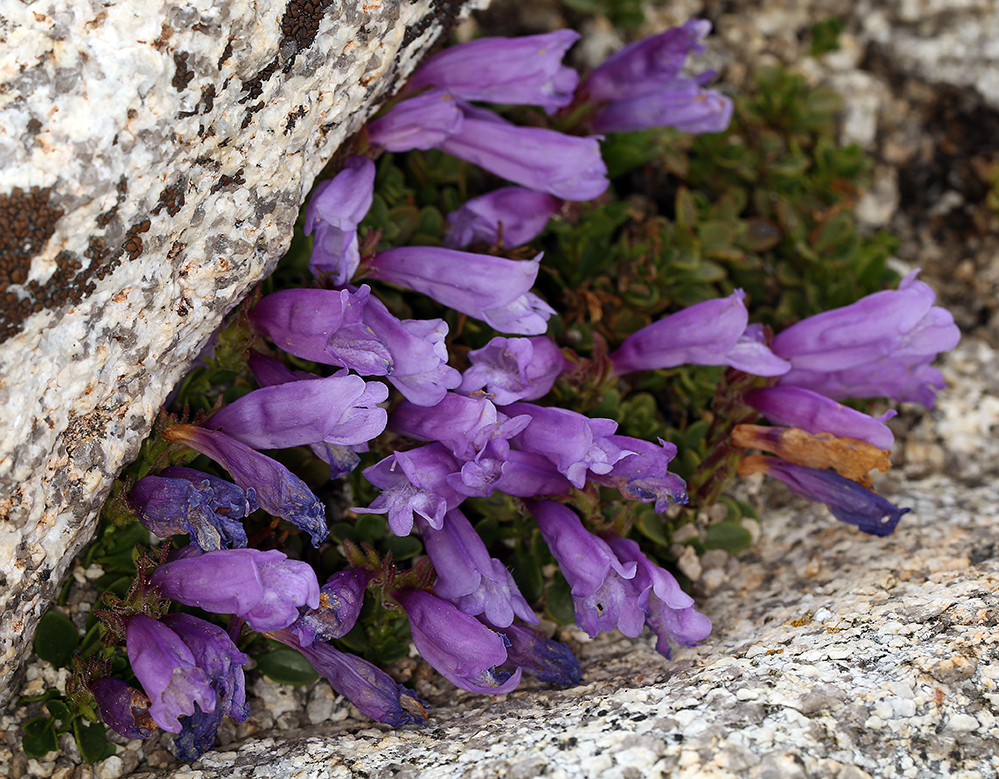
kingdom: Plantae
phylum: Tracheophyta
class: Magnoliopsida
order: Lamiales
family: Plantaginaceae
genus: Penstemon
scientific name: Penstemon davidsonii
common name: Davidson's penstemon
